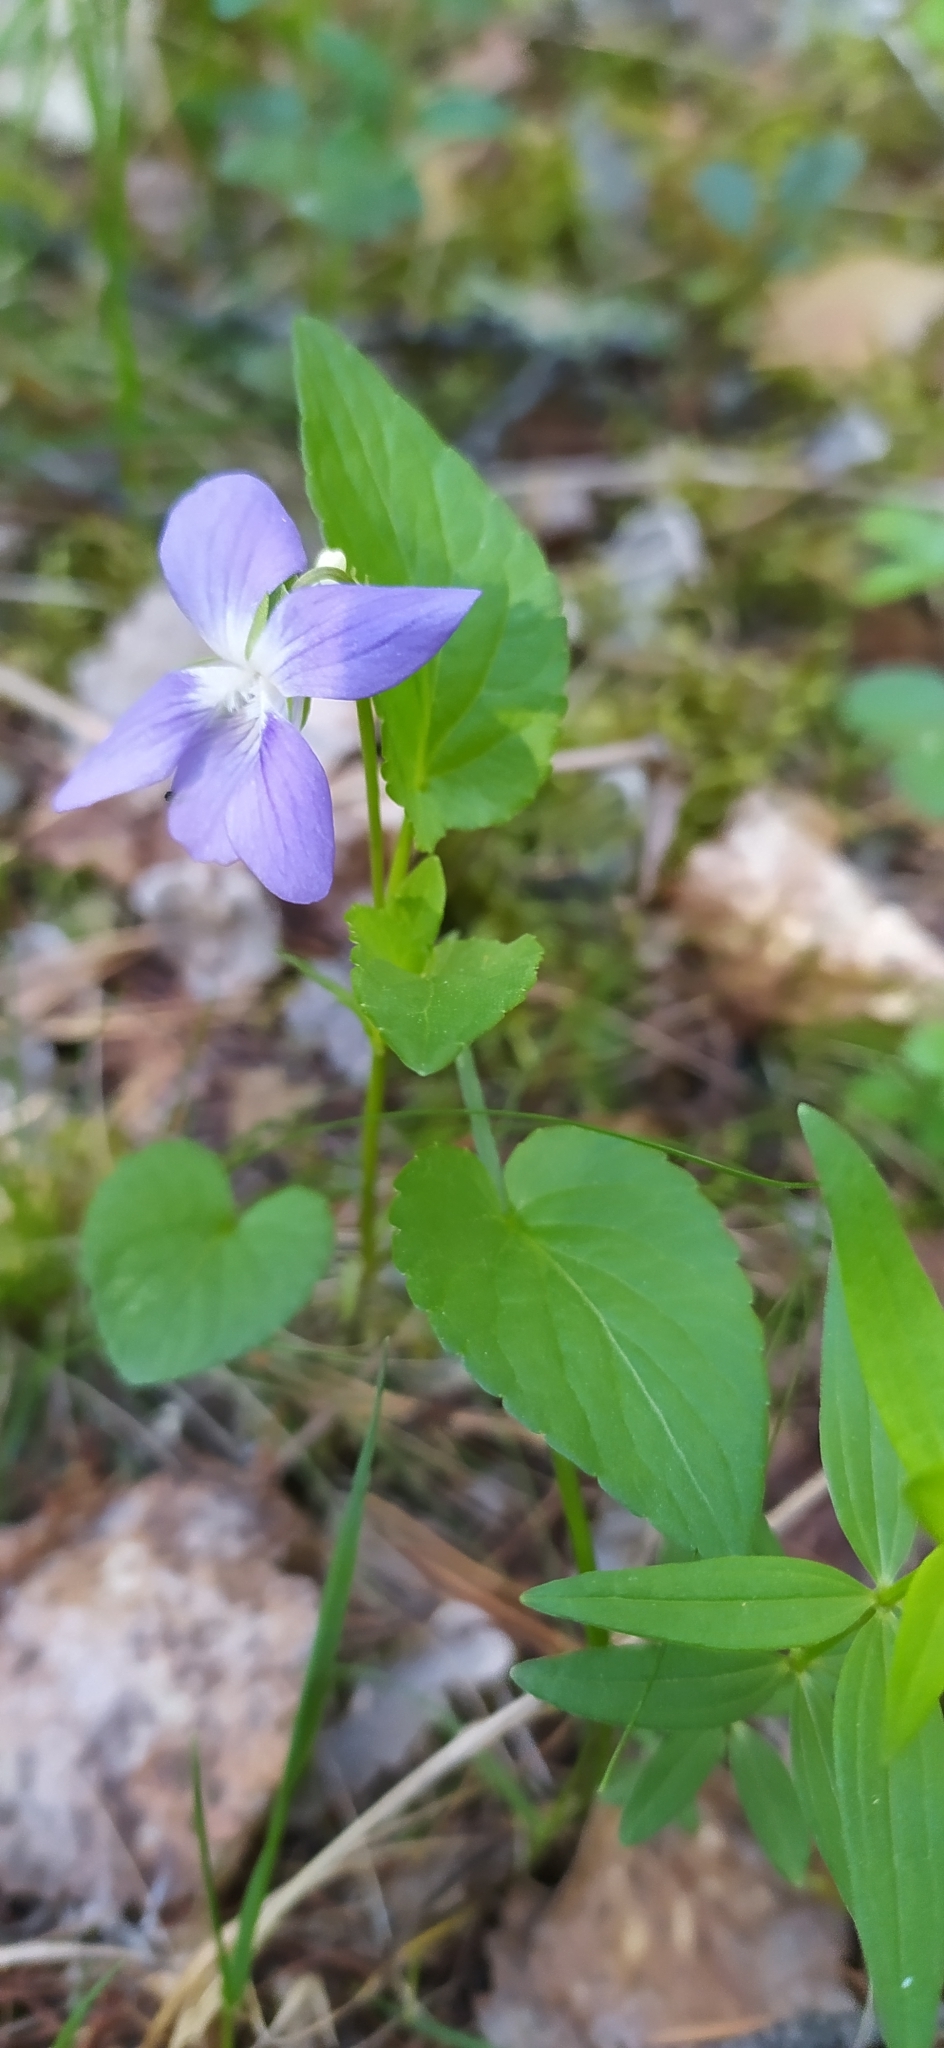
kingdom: Plantae
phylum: Tracheophyta
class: Magnoliopsida
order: Malpighiales
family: Violaceae
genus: Viola
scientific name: Viola canina
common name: Heath dog-violet
